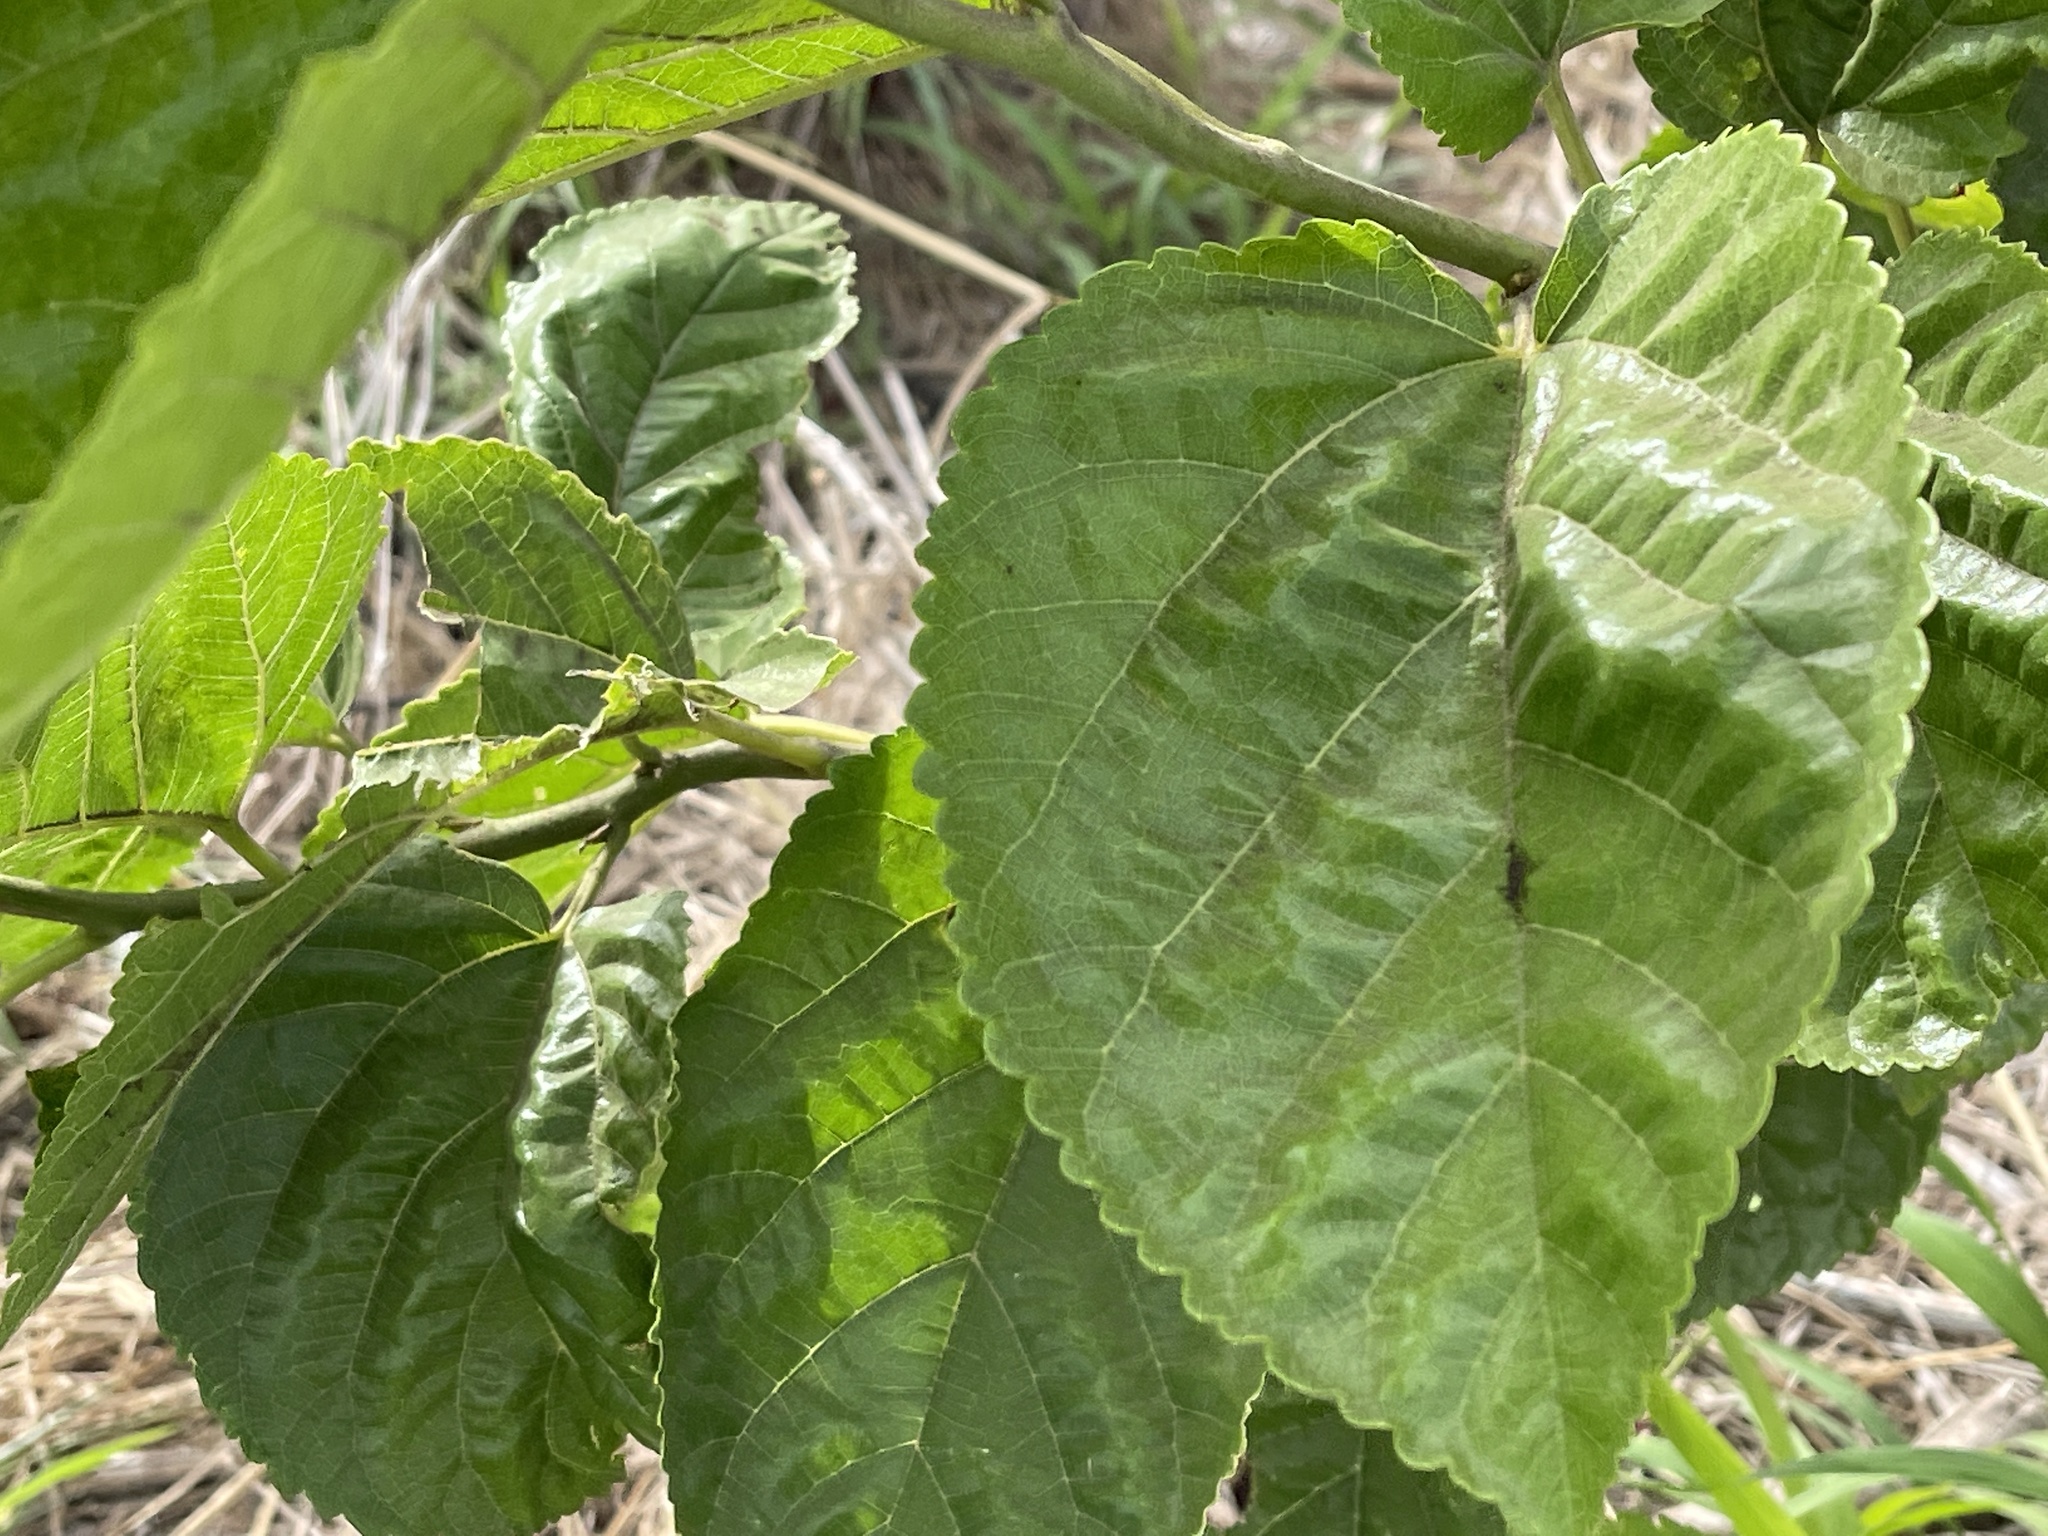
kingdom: Plantae
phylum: Tracheophyta
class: Magnoliopsida
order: Rosales
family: Moraceae
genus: Morus
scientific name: Morus rubra
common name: Red mulberry
